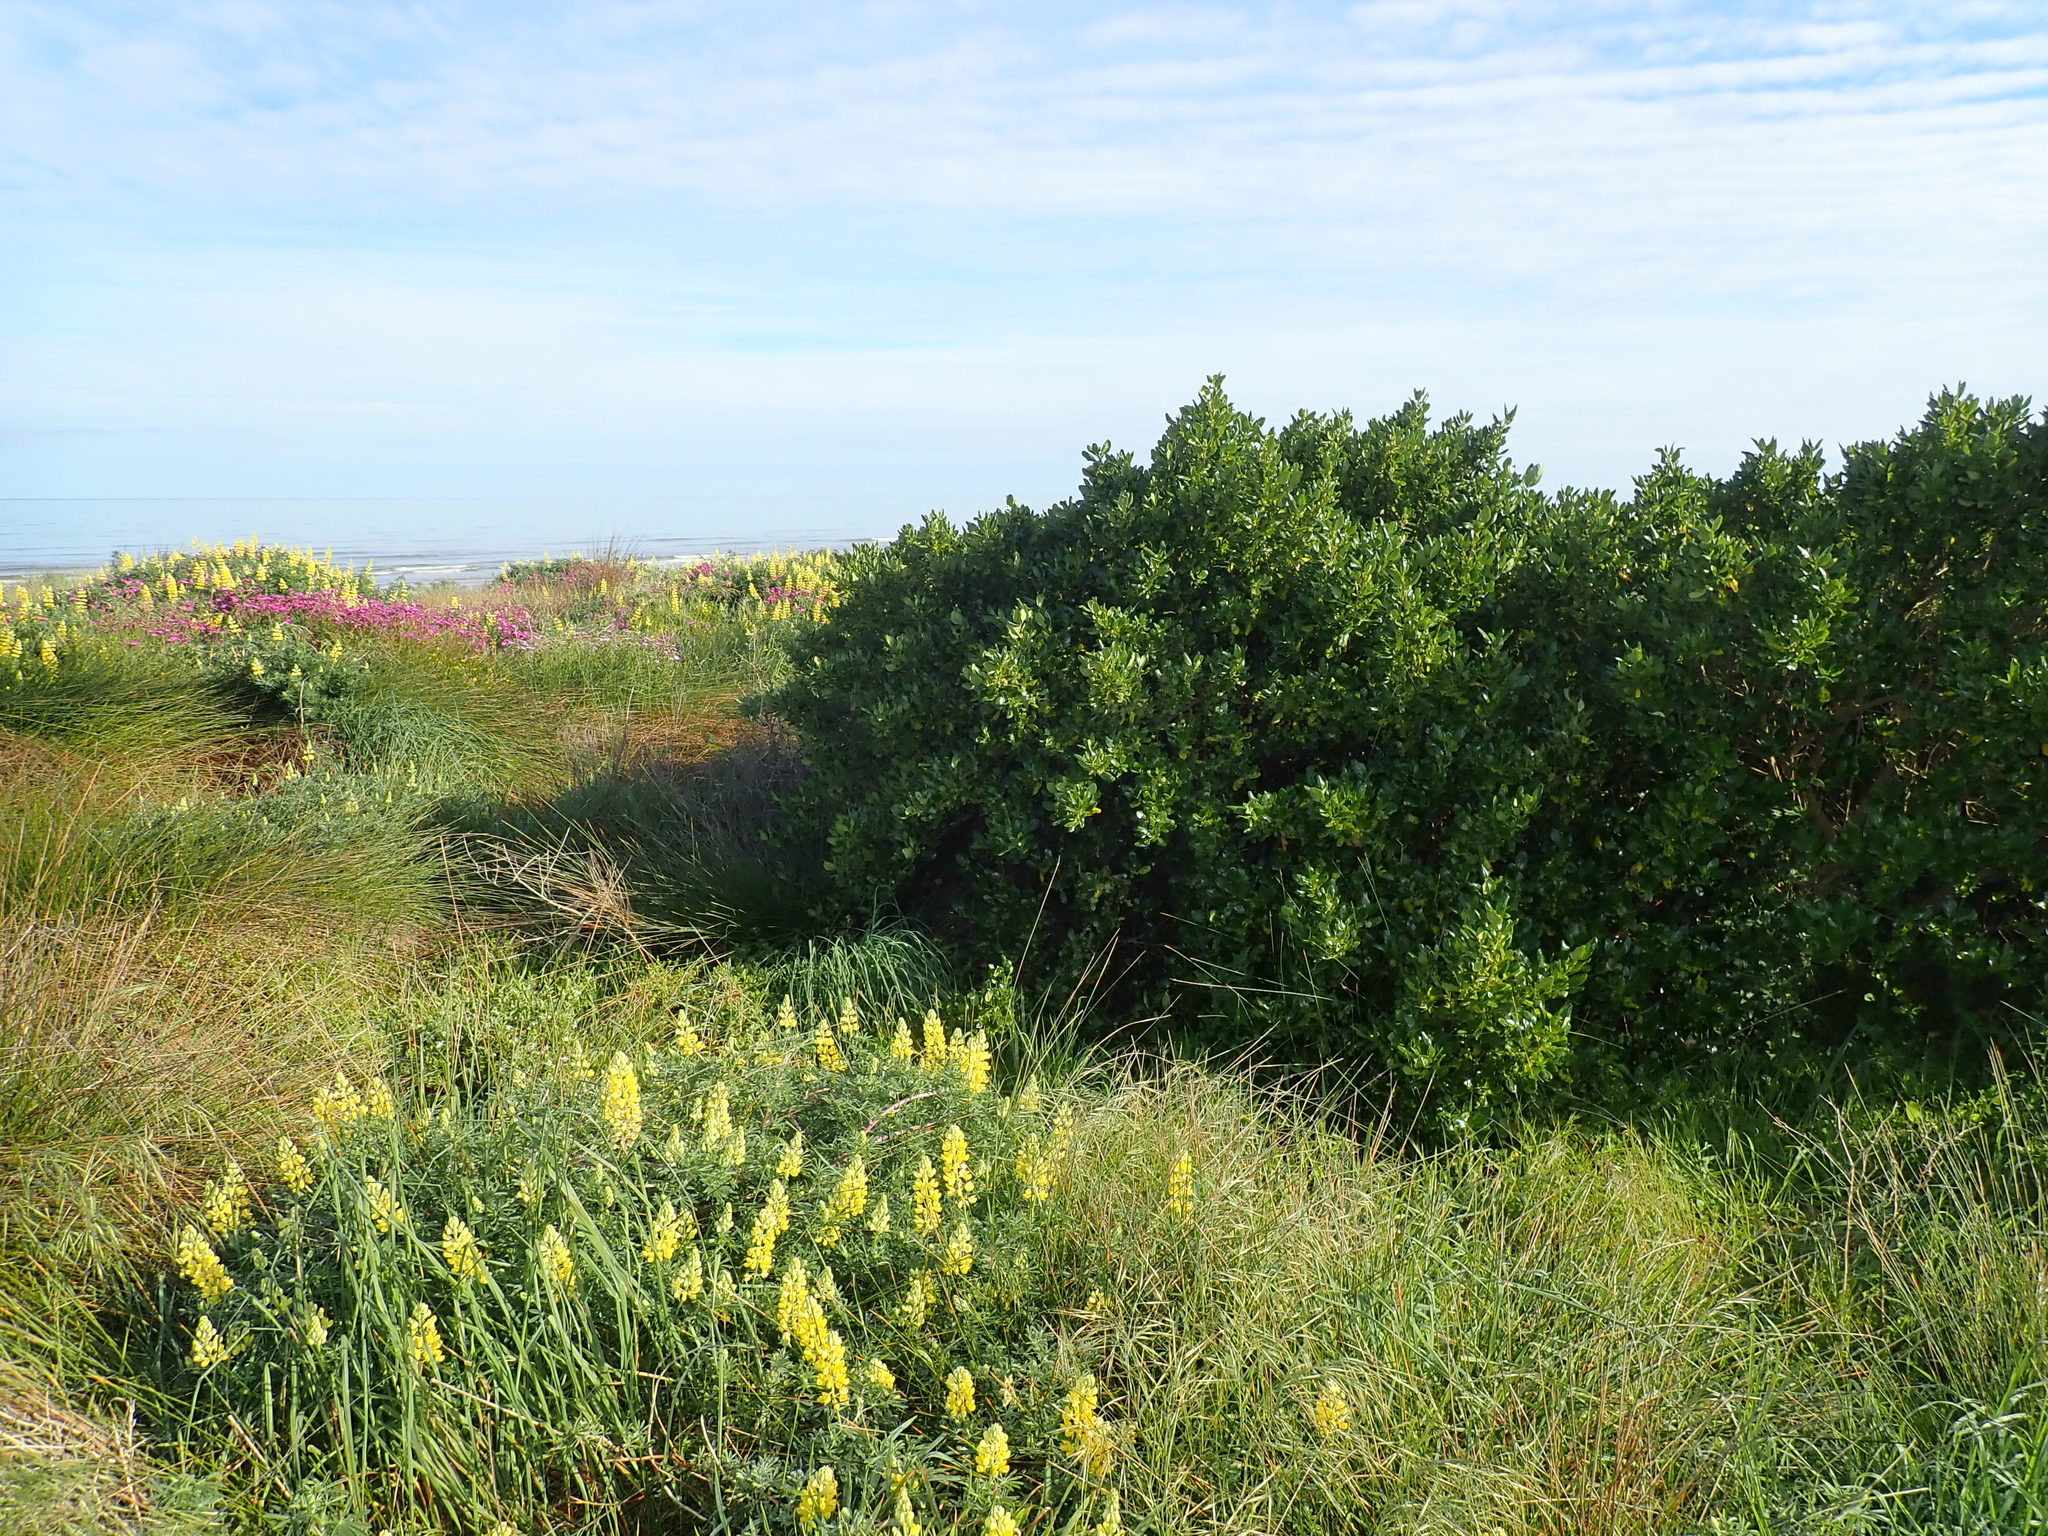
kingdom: Plantae
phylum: Tracheophyta
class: Magnoliopsida
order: Gentianales
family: Rubiaceae
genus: Coprosma
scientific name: Coprosma repens
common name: Tree bedstraw
